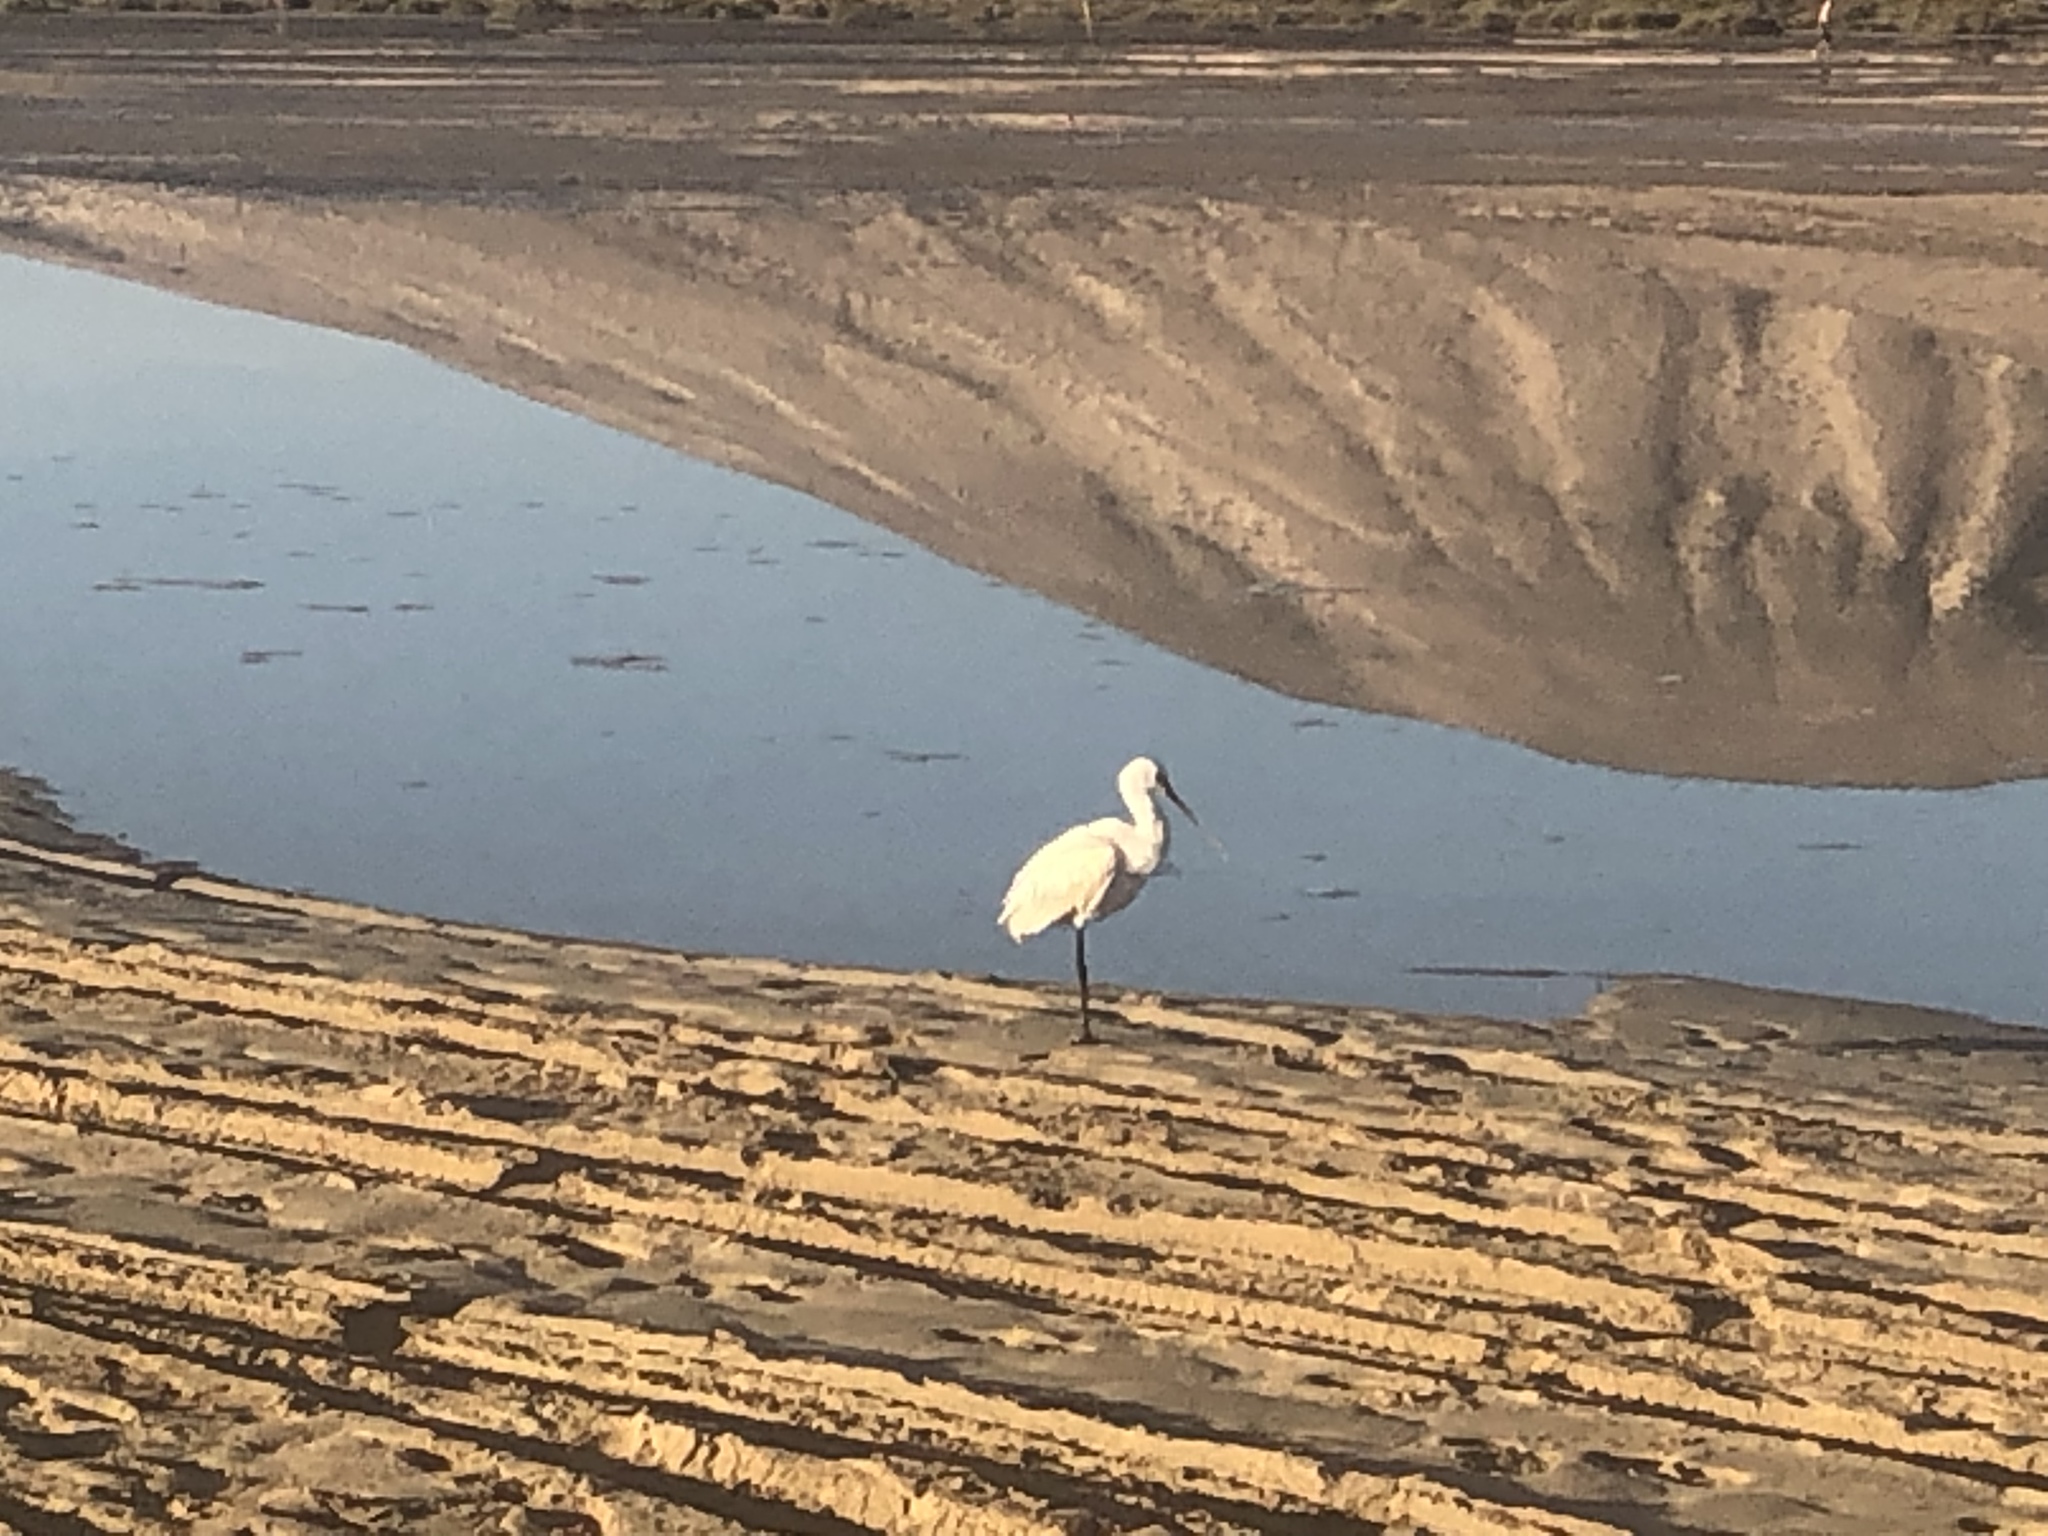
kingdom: Animalia
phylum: Chordata
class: Aves
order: Pelecaniformes
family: Threskiornithidae
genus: Platalea
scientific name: Platalea leucorodia
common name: Eurasian spoonbill
